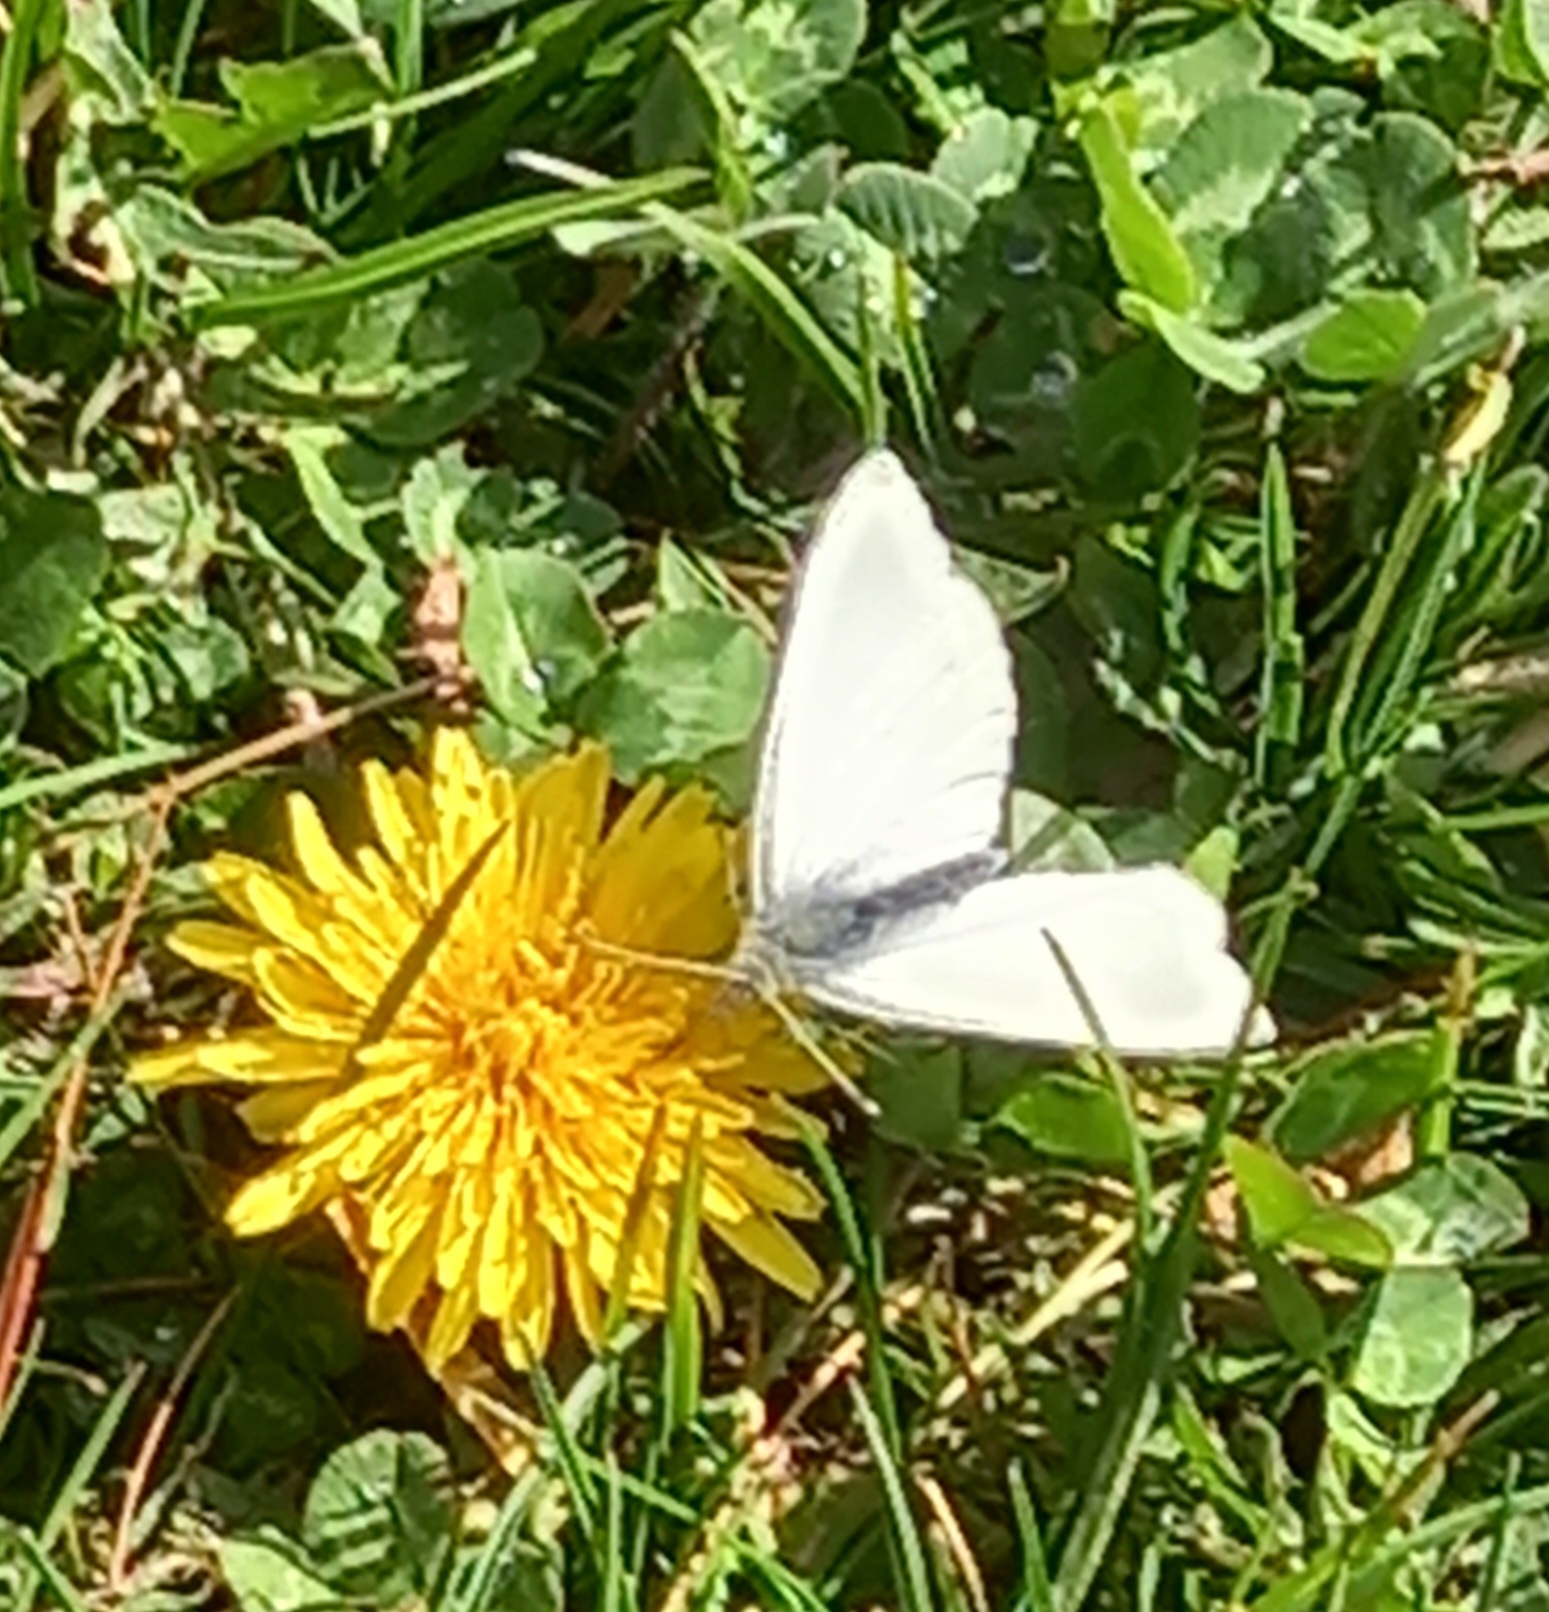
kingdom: Animalia
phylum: Arthropoda
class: Insecta
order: Lepidoptera
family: Pieridae
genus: Pieris
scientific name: Pieris rapae
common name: Small white
